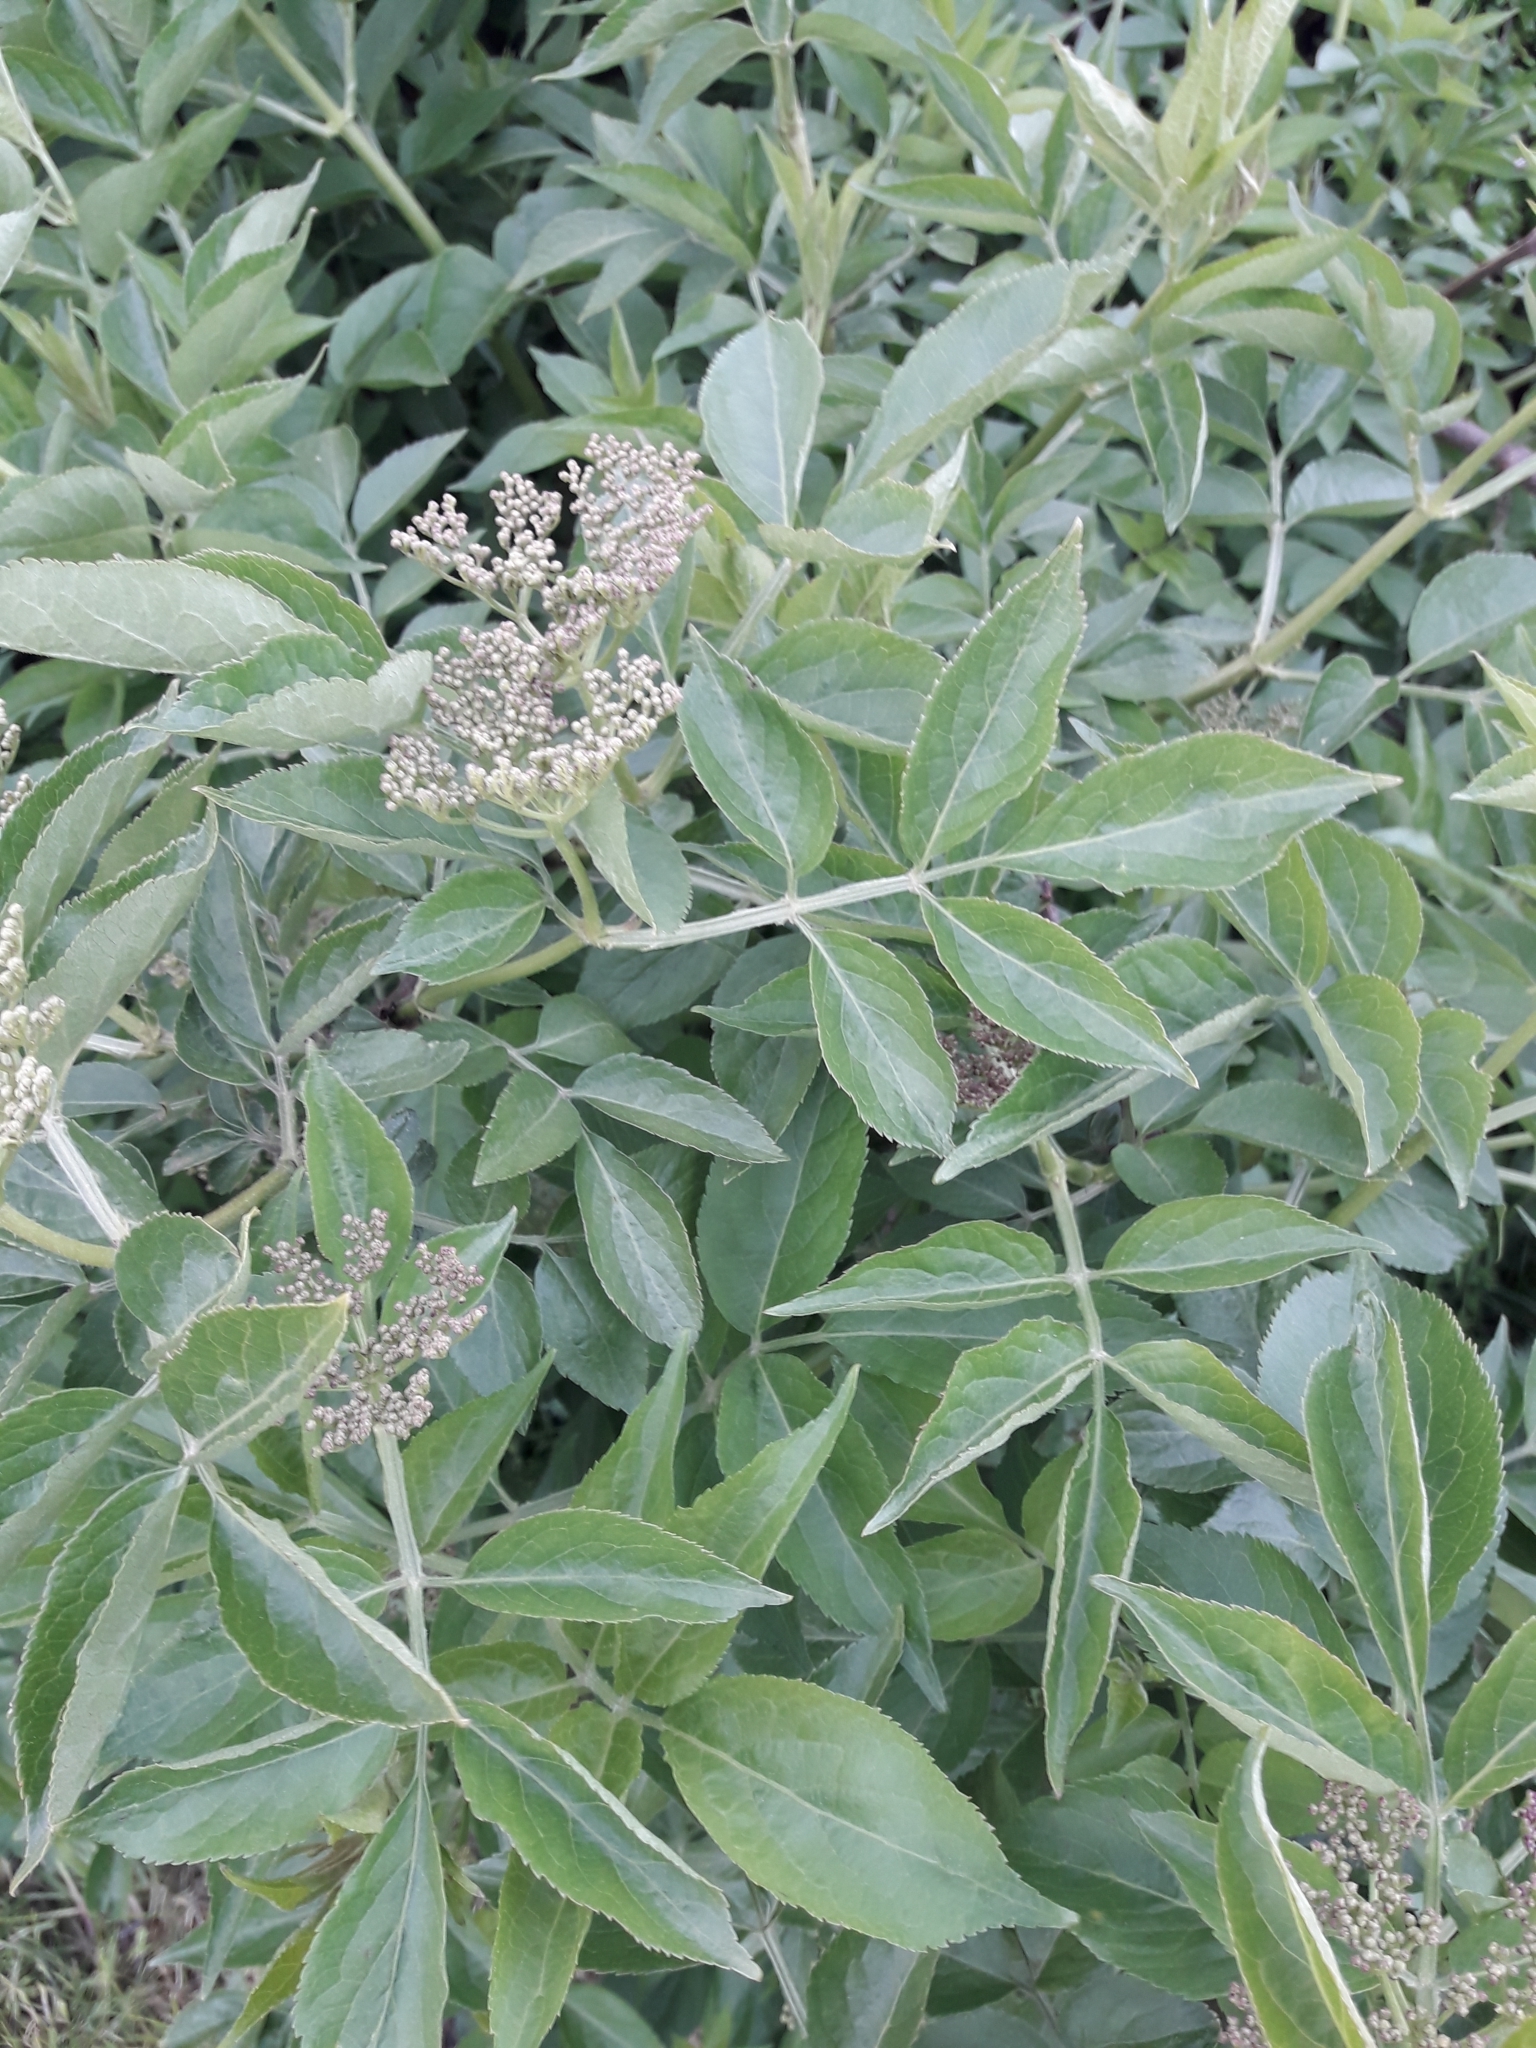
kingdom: Plantae
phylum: Tracheophyta
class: Magnoliopsida
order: Dipsacales
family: Viburnaceae
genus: Sambucus
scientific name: Sambucus nigra
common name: Elder
